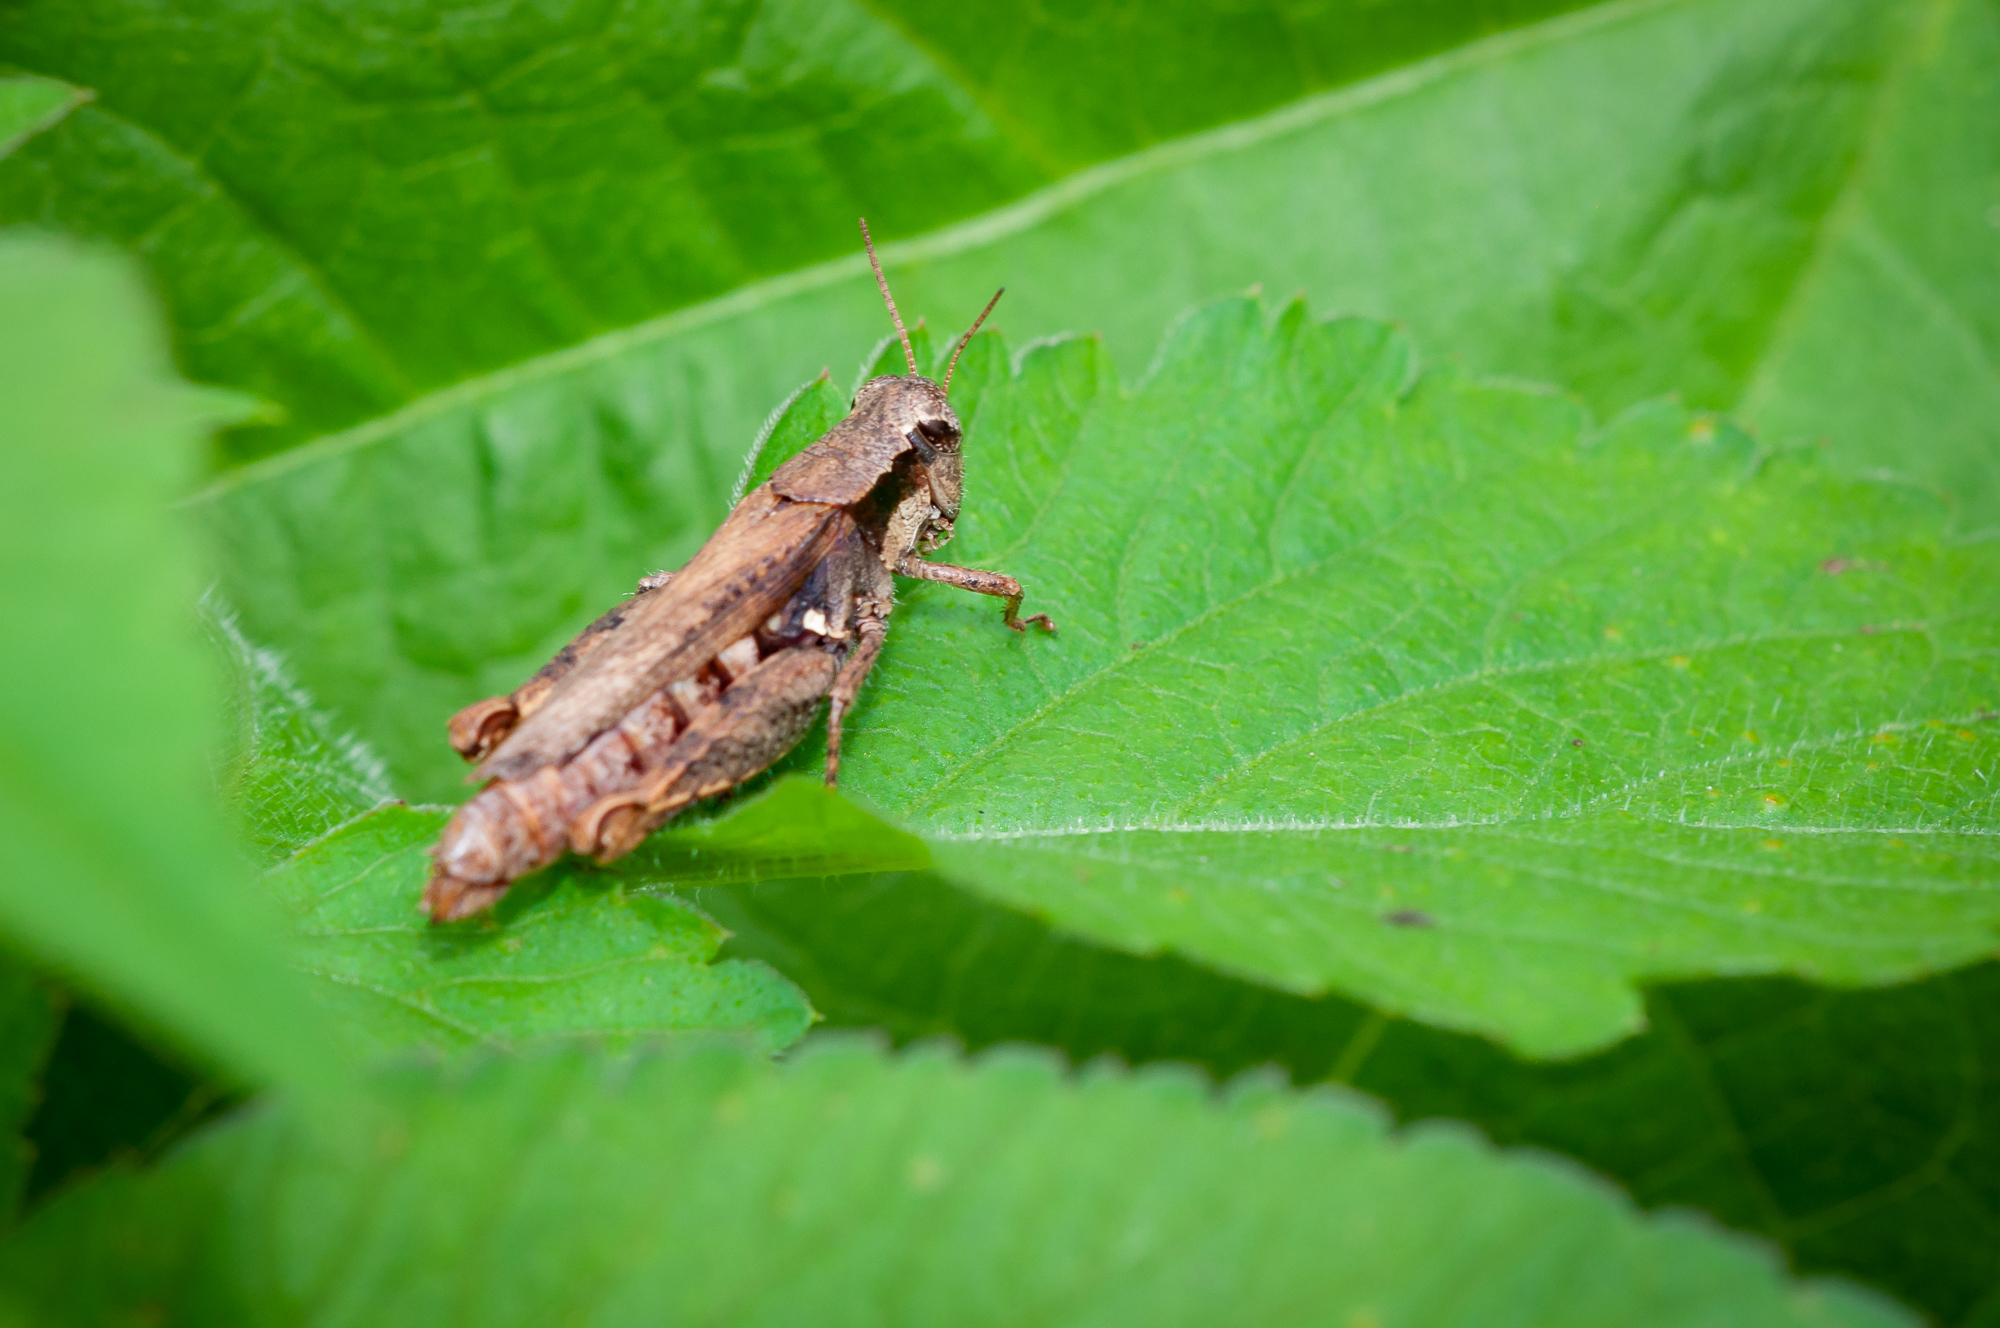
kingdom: Animalia
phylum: Arthropoda
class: Insecta
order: Orthoptera
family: Acrididae
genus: Aidemona
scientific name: Aidemona azteca
